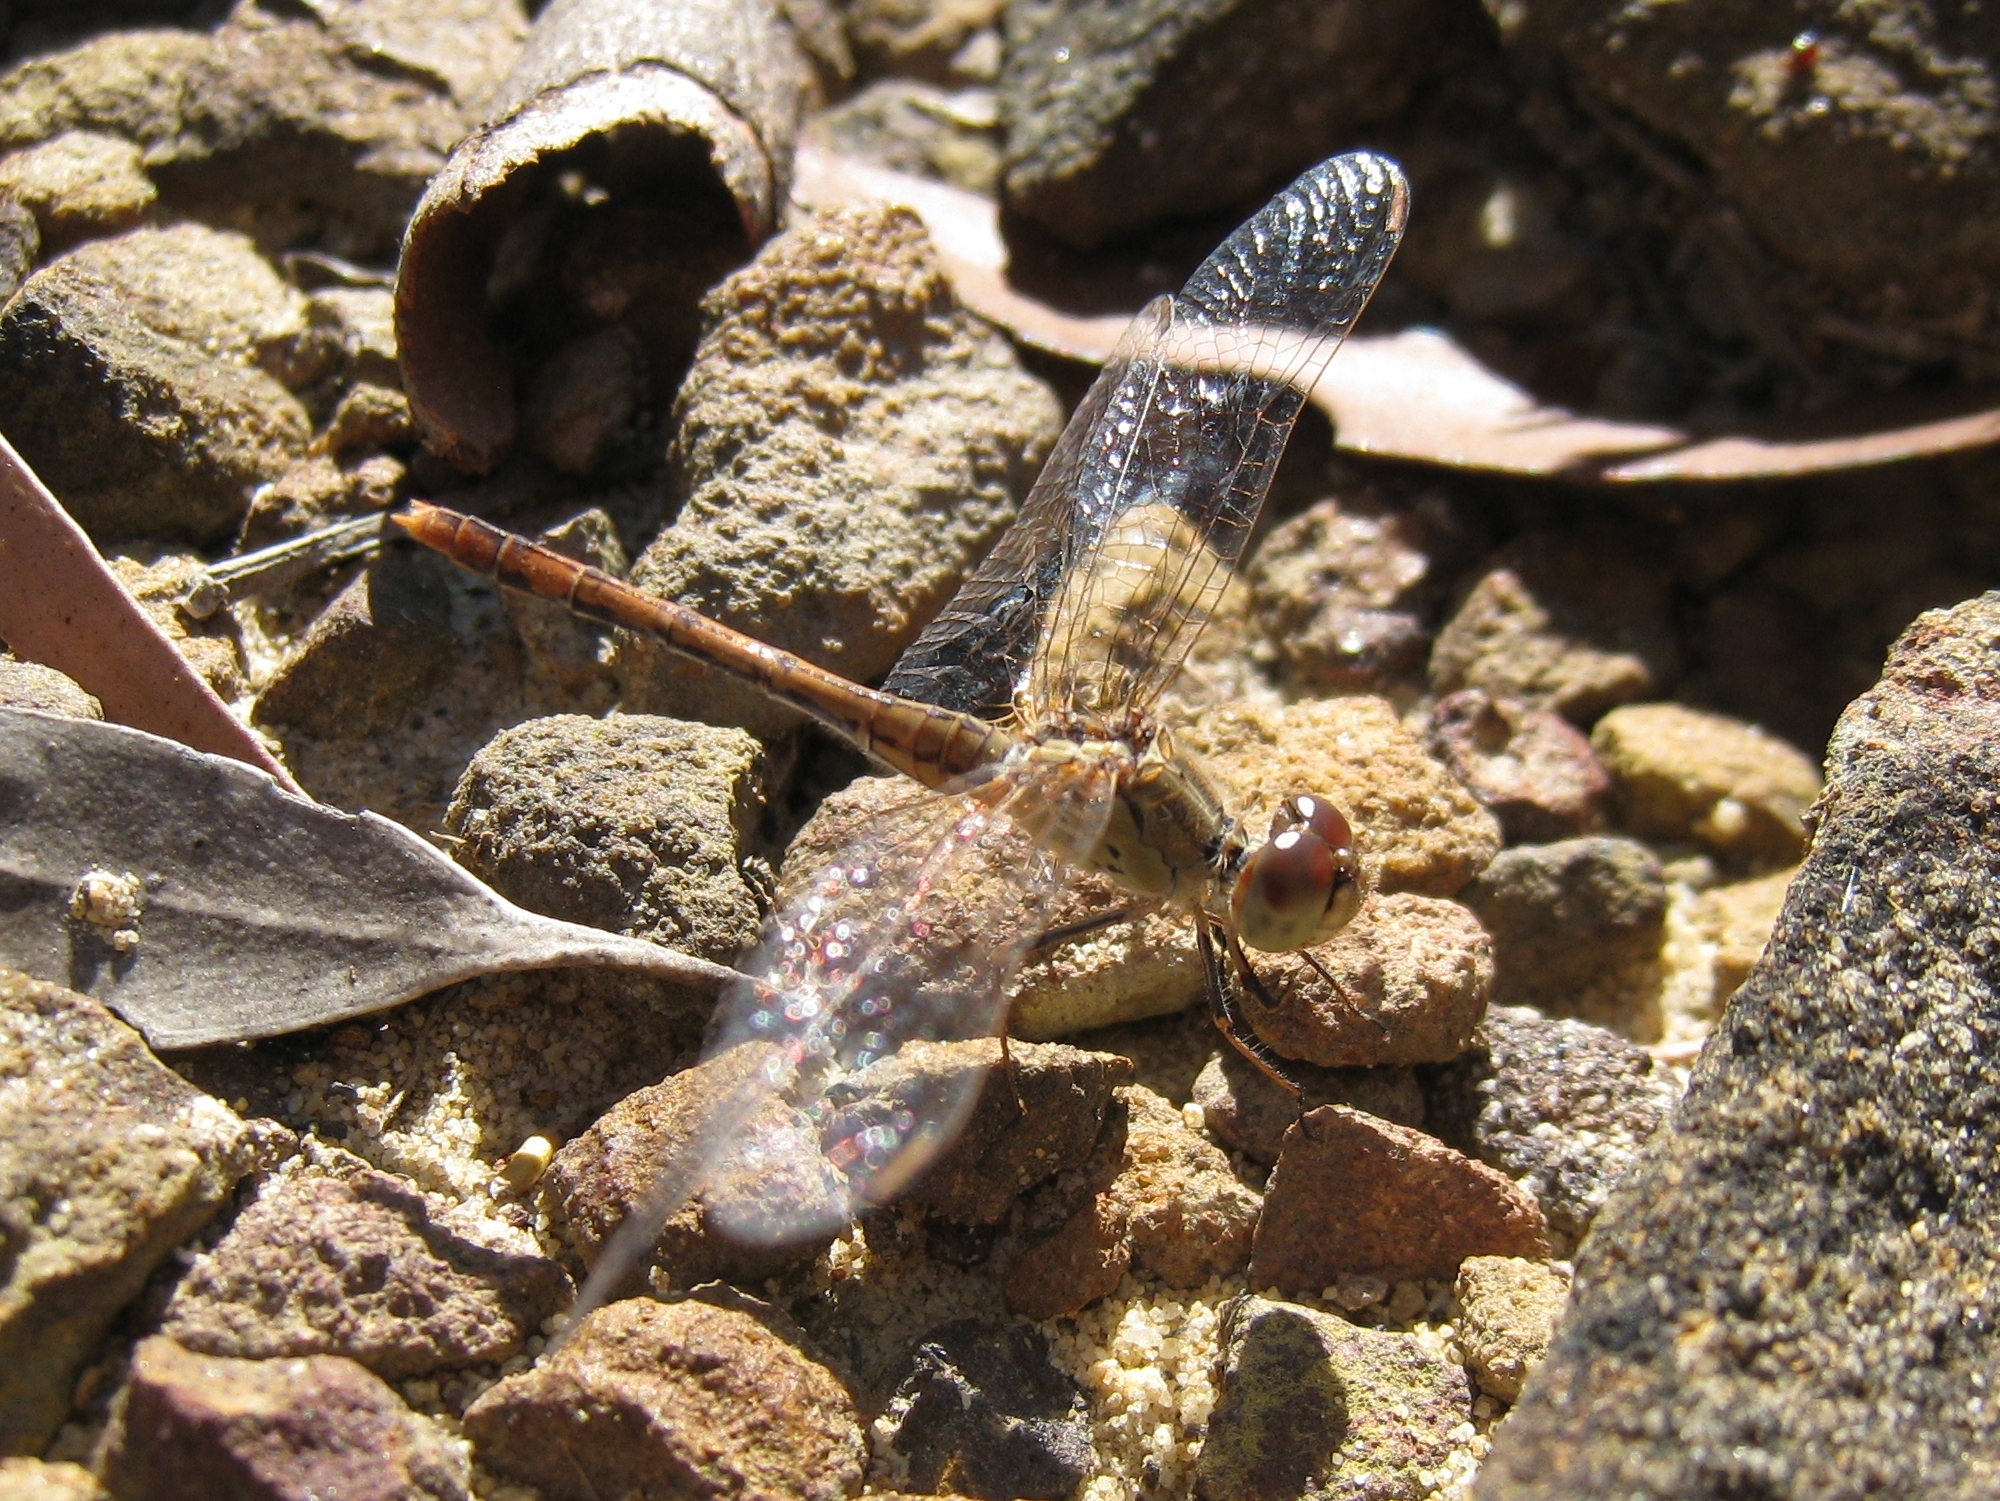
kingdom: Animalia
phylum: Arthropoda
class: Insecta
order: Odonata
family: Libellulidae
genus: Diplacodes
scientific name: Diplacodes bipunctata
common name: Red percher dragonfly
